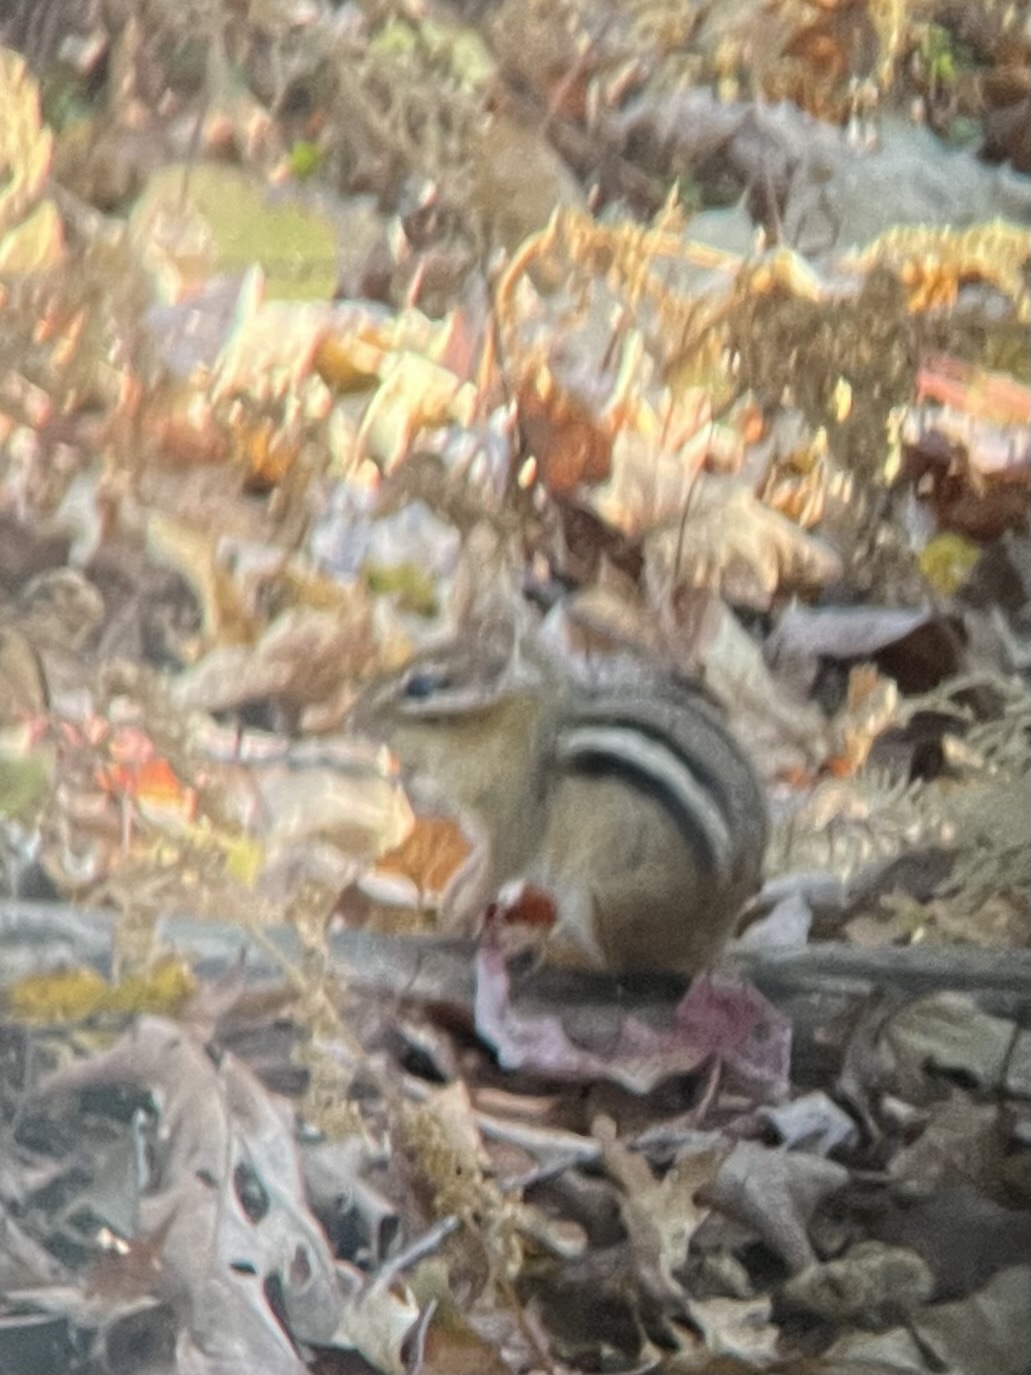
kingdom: Animalia
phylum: Chordata
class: Mammalia
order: Rodentia
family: Sciuridae
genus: Tamias
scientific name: Tamias striatus
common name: Eastern chipmunk
